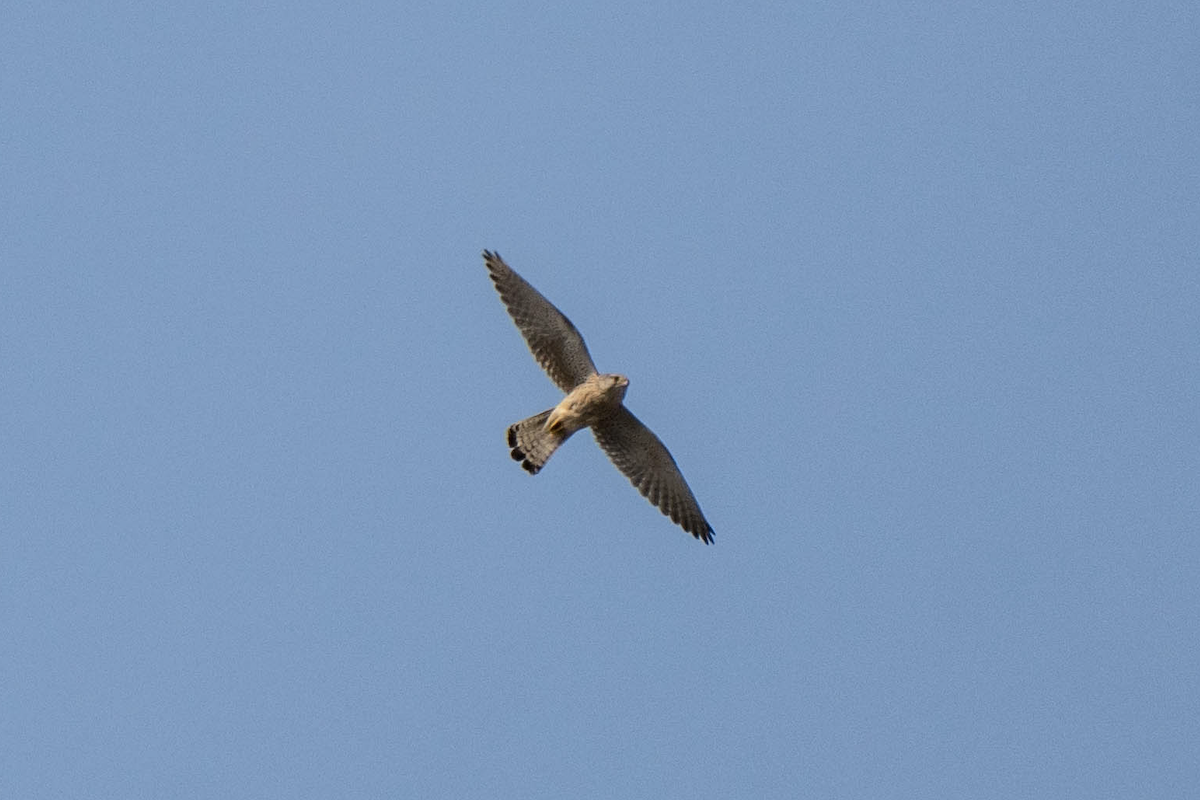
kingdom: Animalia
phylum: Chordata
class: Aves
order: Falconiformes
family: Falconidae
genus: Falco
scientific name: Falco tinnunculus
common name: Common kestrel
